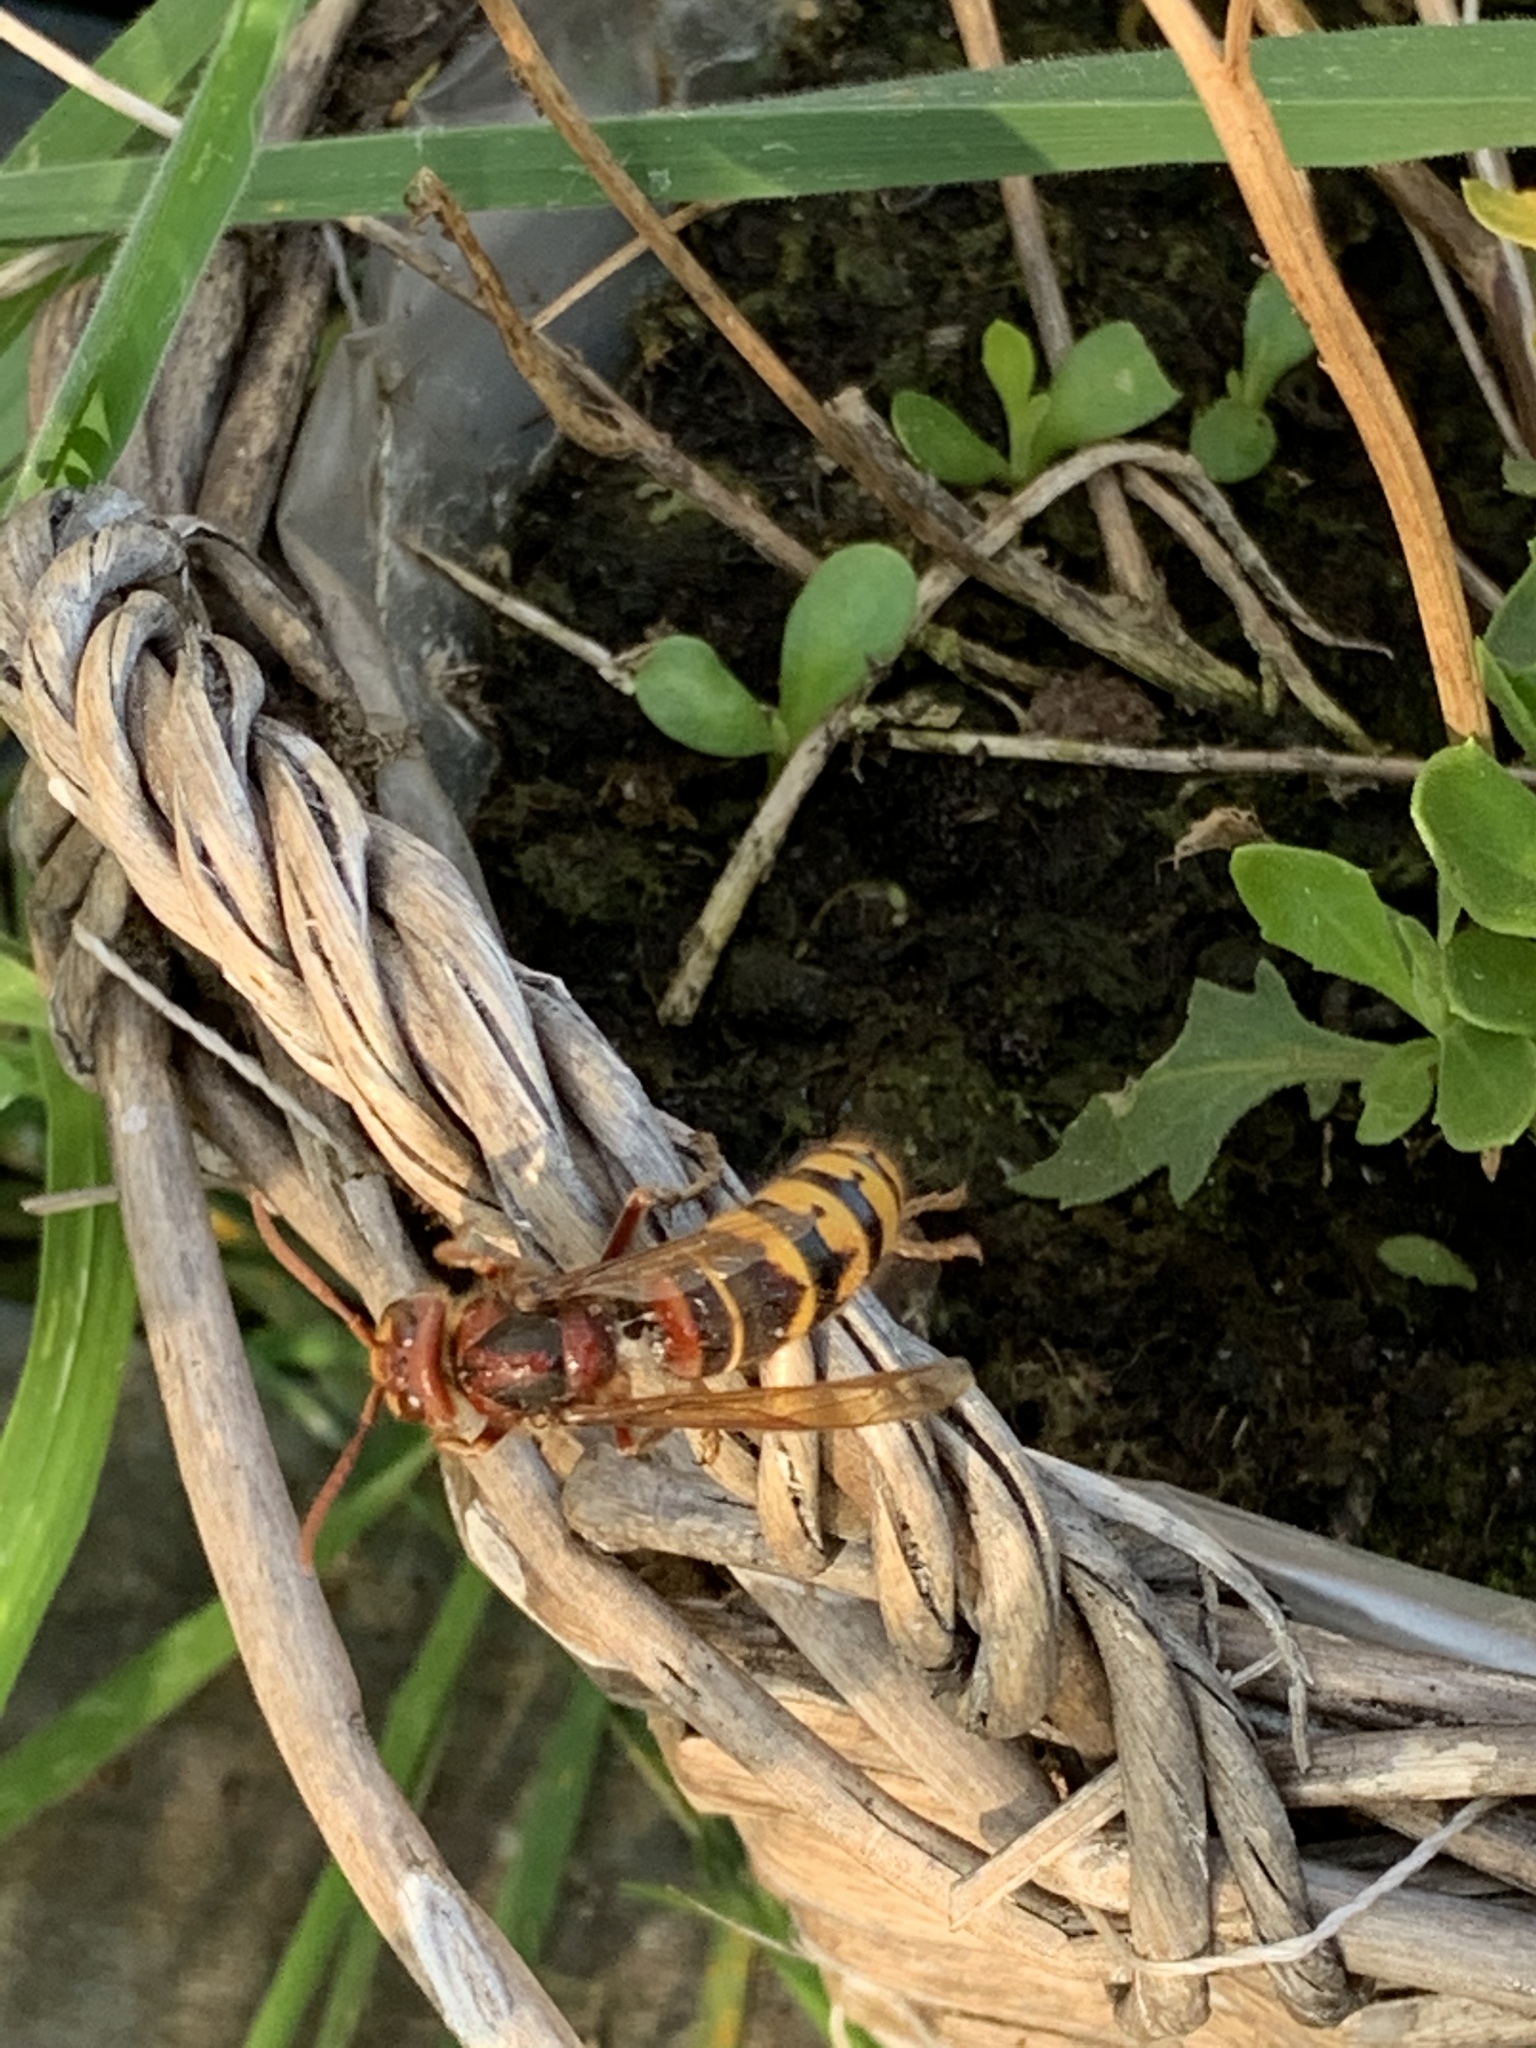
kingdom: Animalia
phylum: Arthropoda
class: Insecta
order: Hymenoptera
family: Vespidae
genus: Vespa
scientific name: Vespa crabro
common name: Hornet
